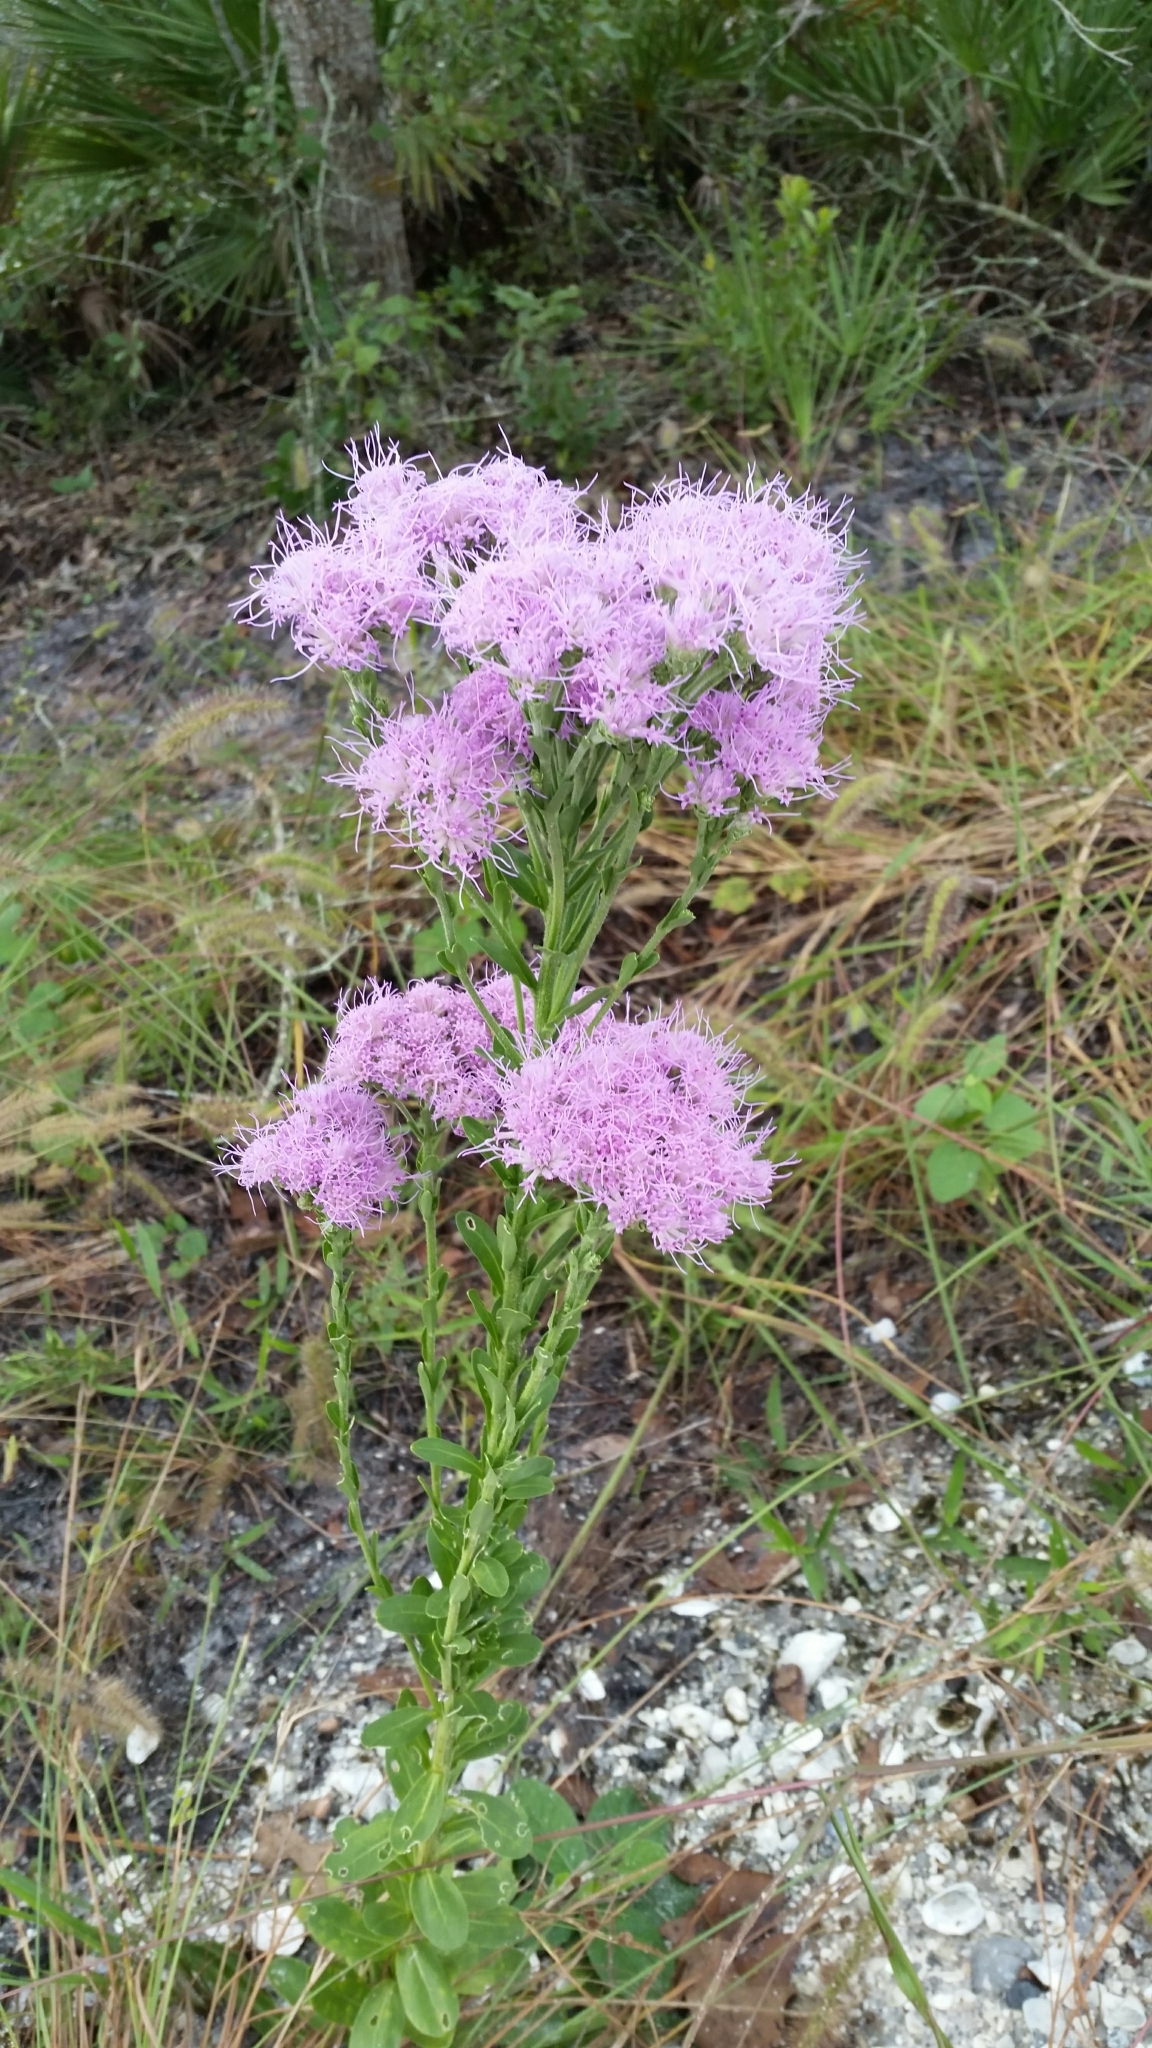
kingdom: Plantae
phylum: Tracheophyta
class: Magnoliopsida
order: Asterales
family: Asteraceae
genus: Carphephorus
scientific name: Carphephorus corymbosus
